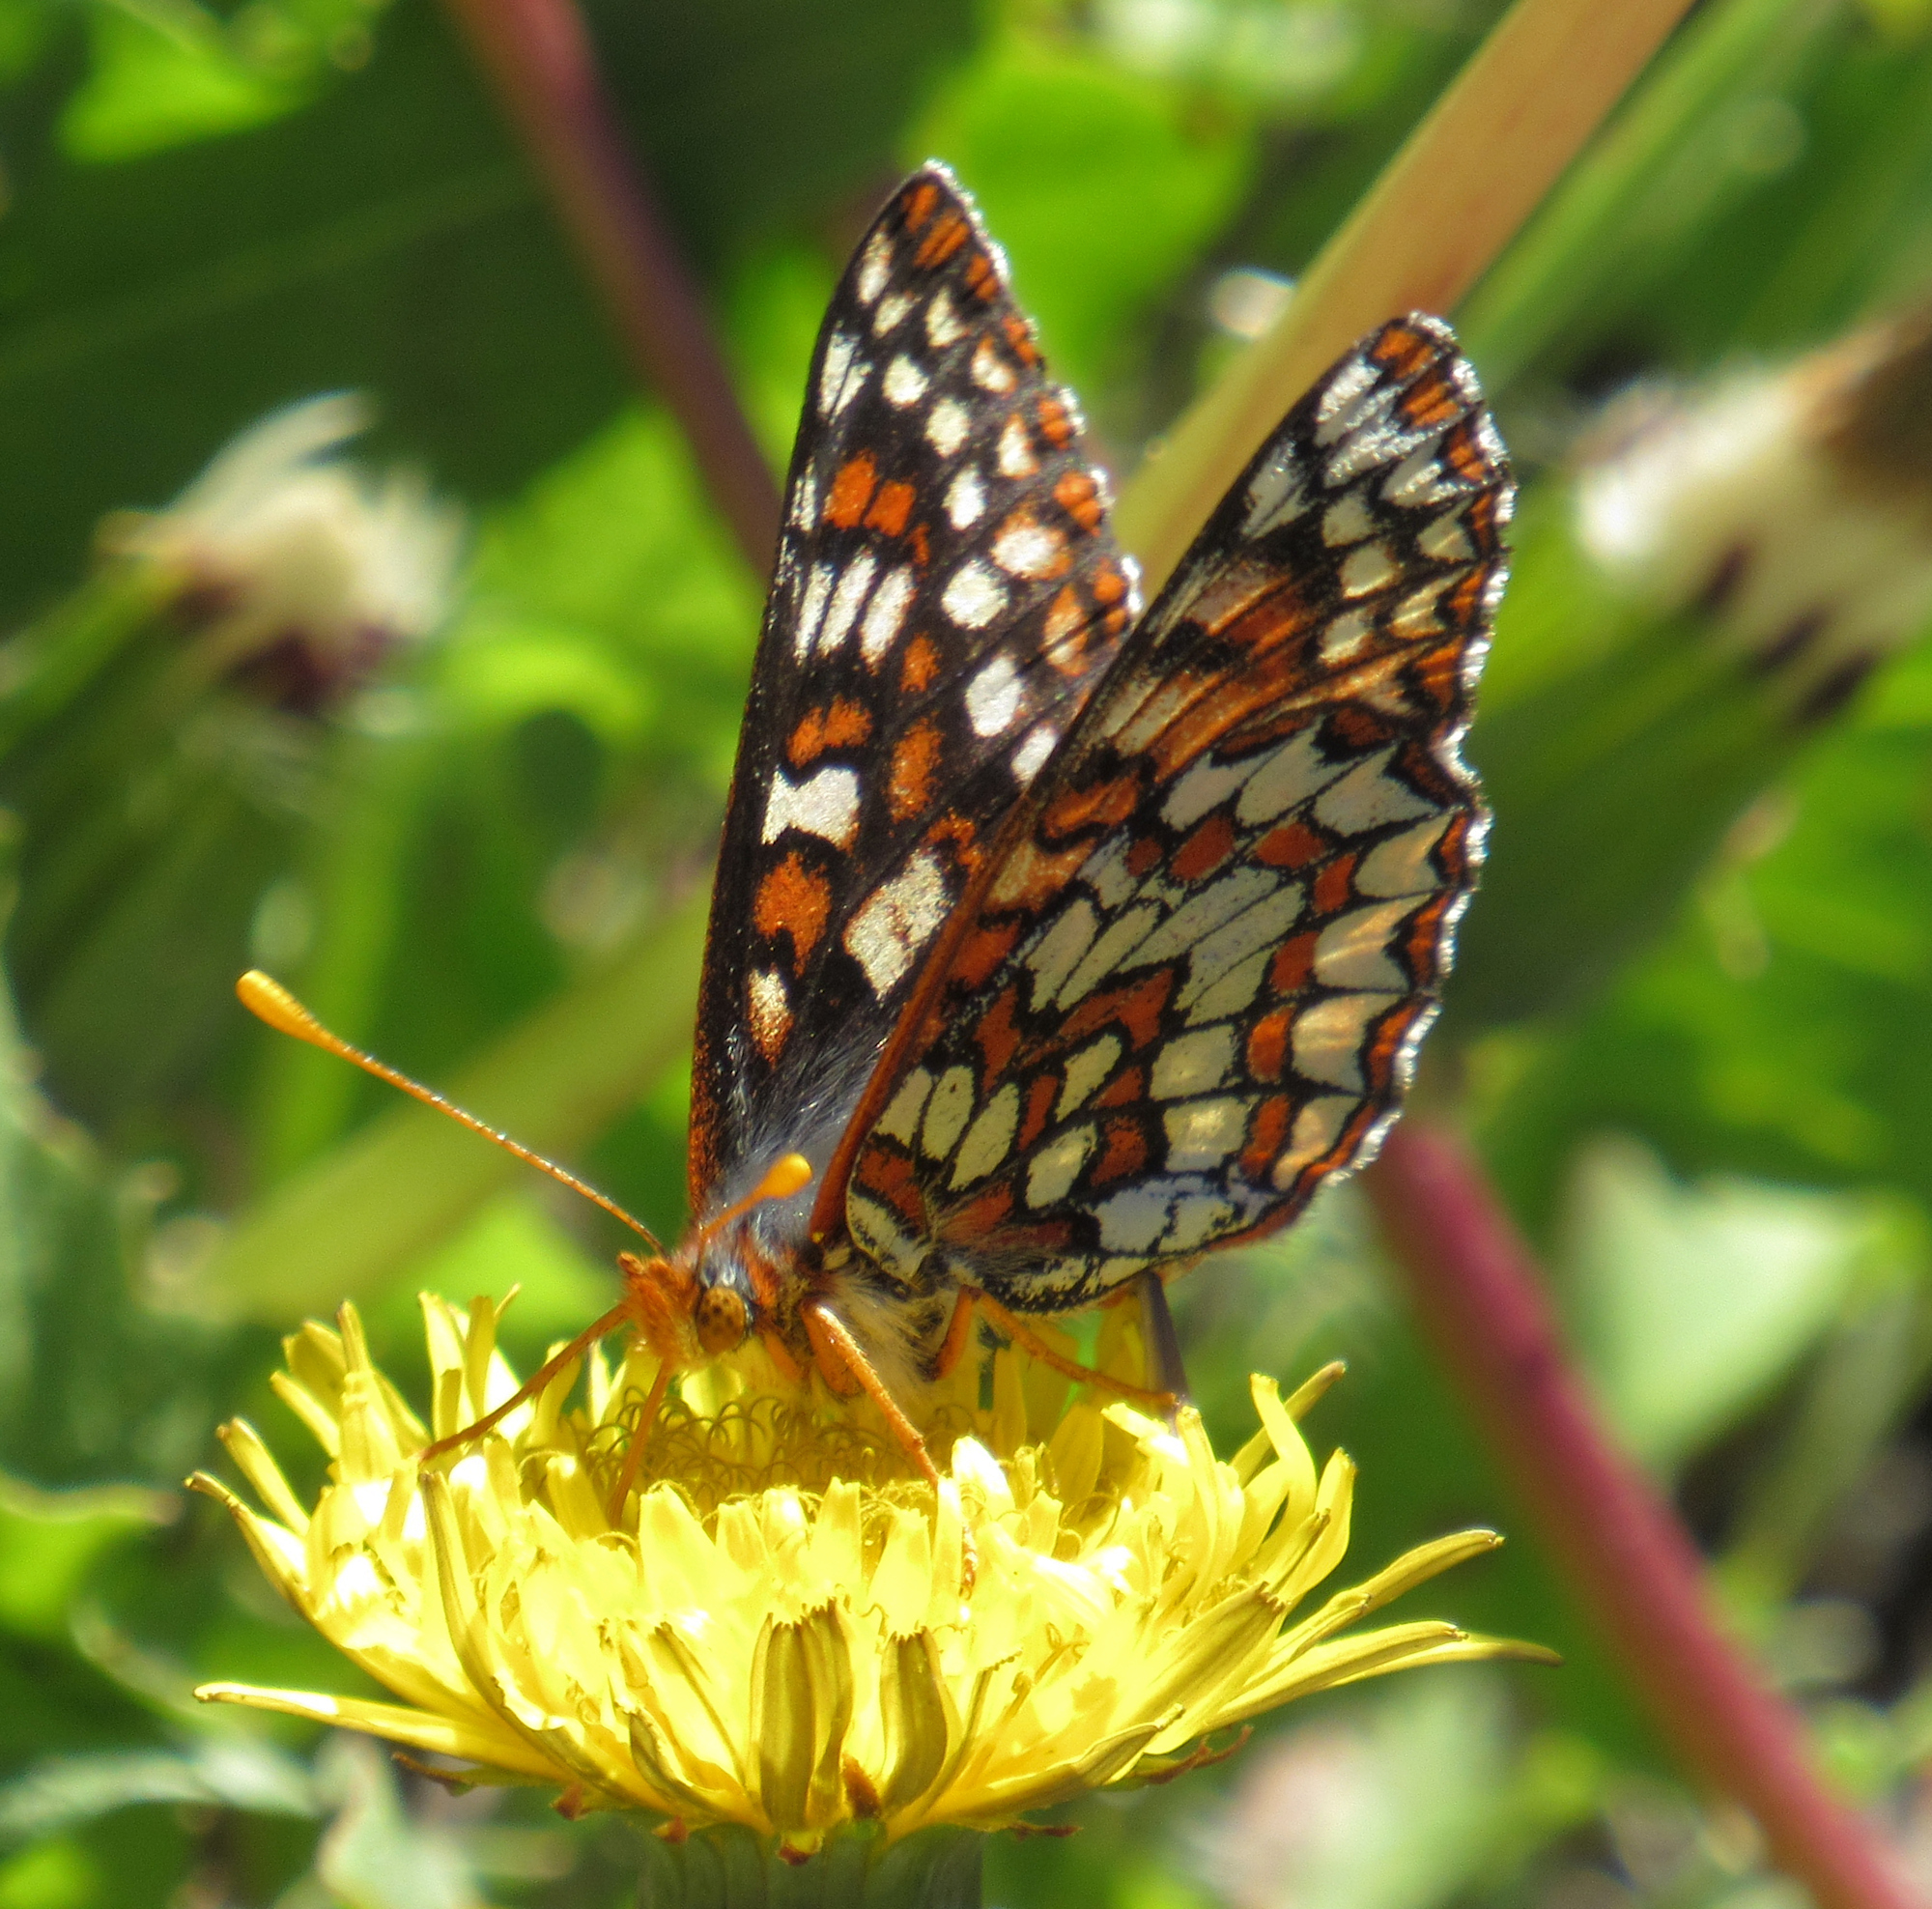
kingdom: Animalia
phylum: Arthropoda
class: Insecta
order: Lepidoptera
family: Nymphalidae
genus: Occidryas
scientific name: Occidryas anicia
